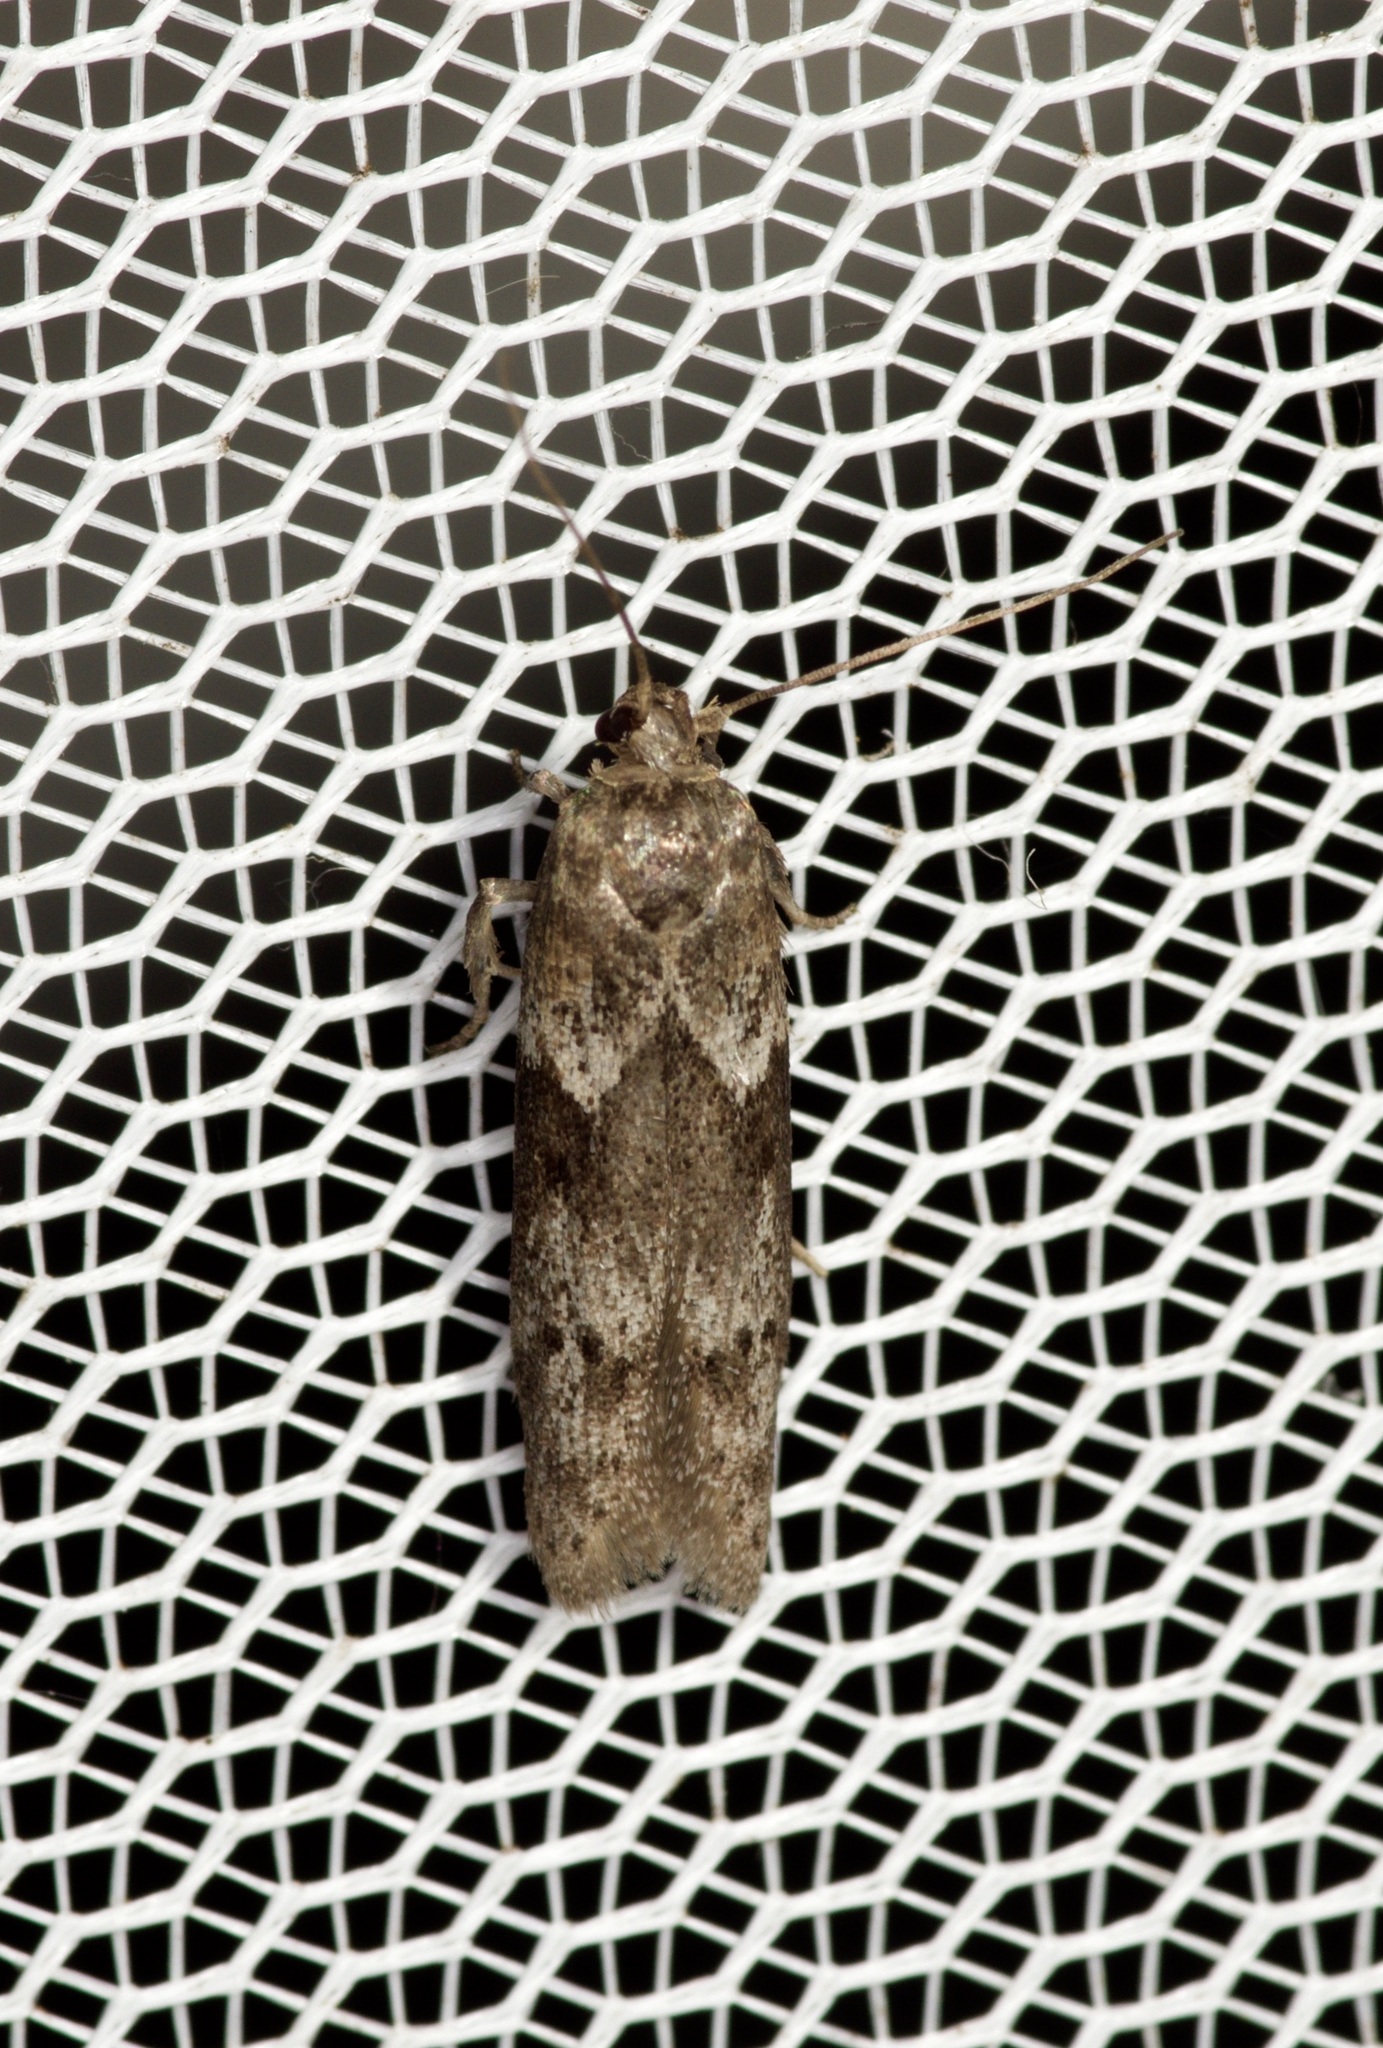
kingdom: Animalia
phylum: Arthropoda
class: Insecta
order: Lepidoptera
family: Blastobasidae
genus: Blastobasis
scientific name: Blastobasis glandulella
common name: Acorn moth
